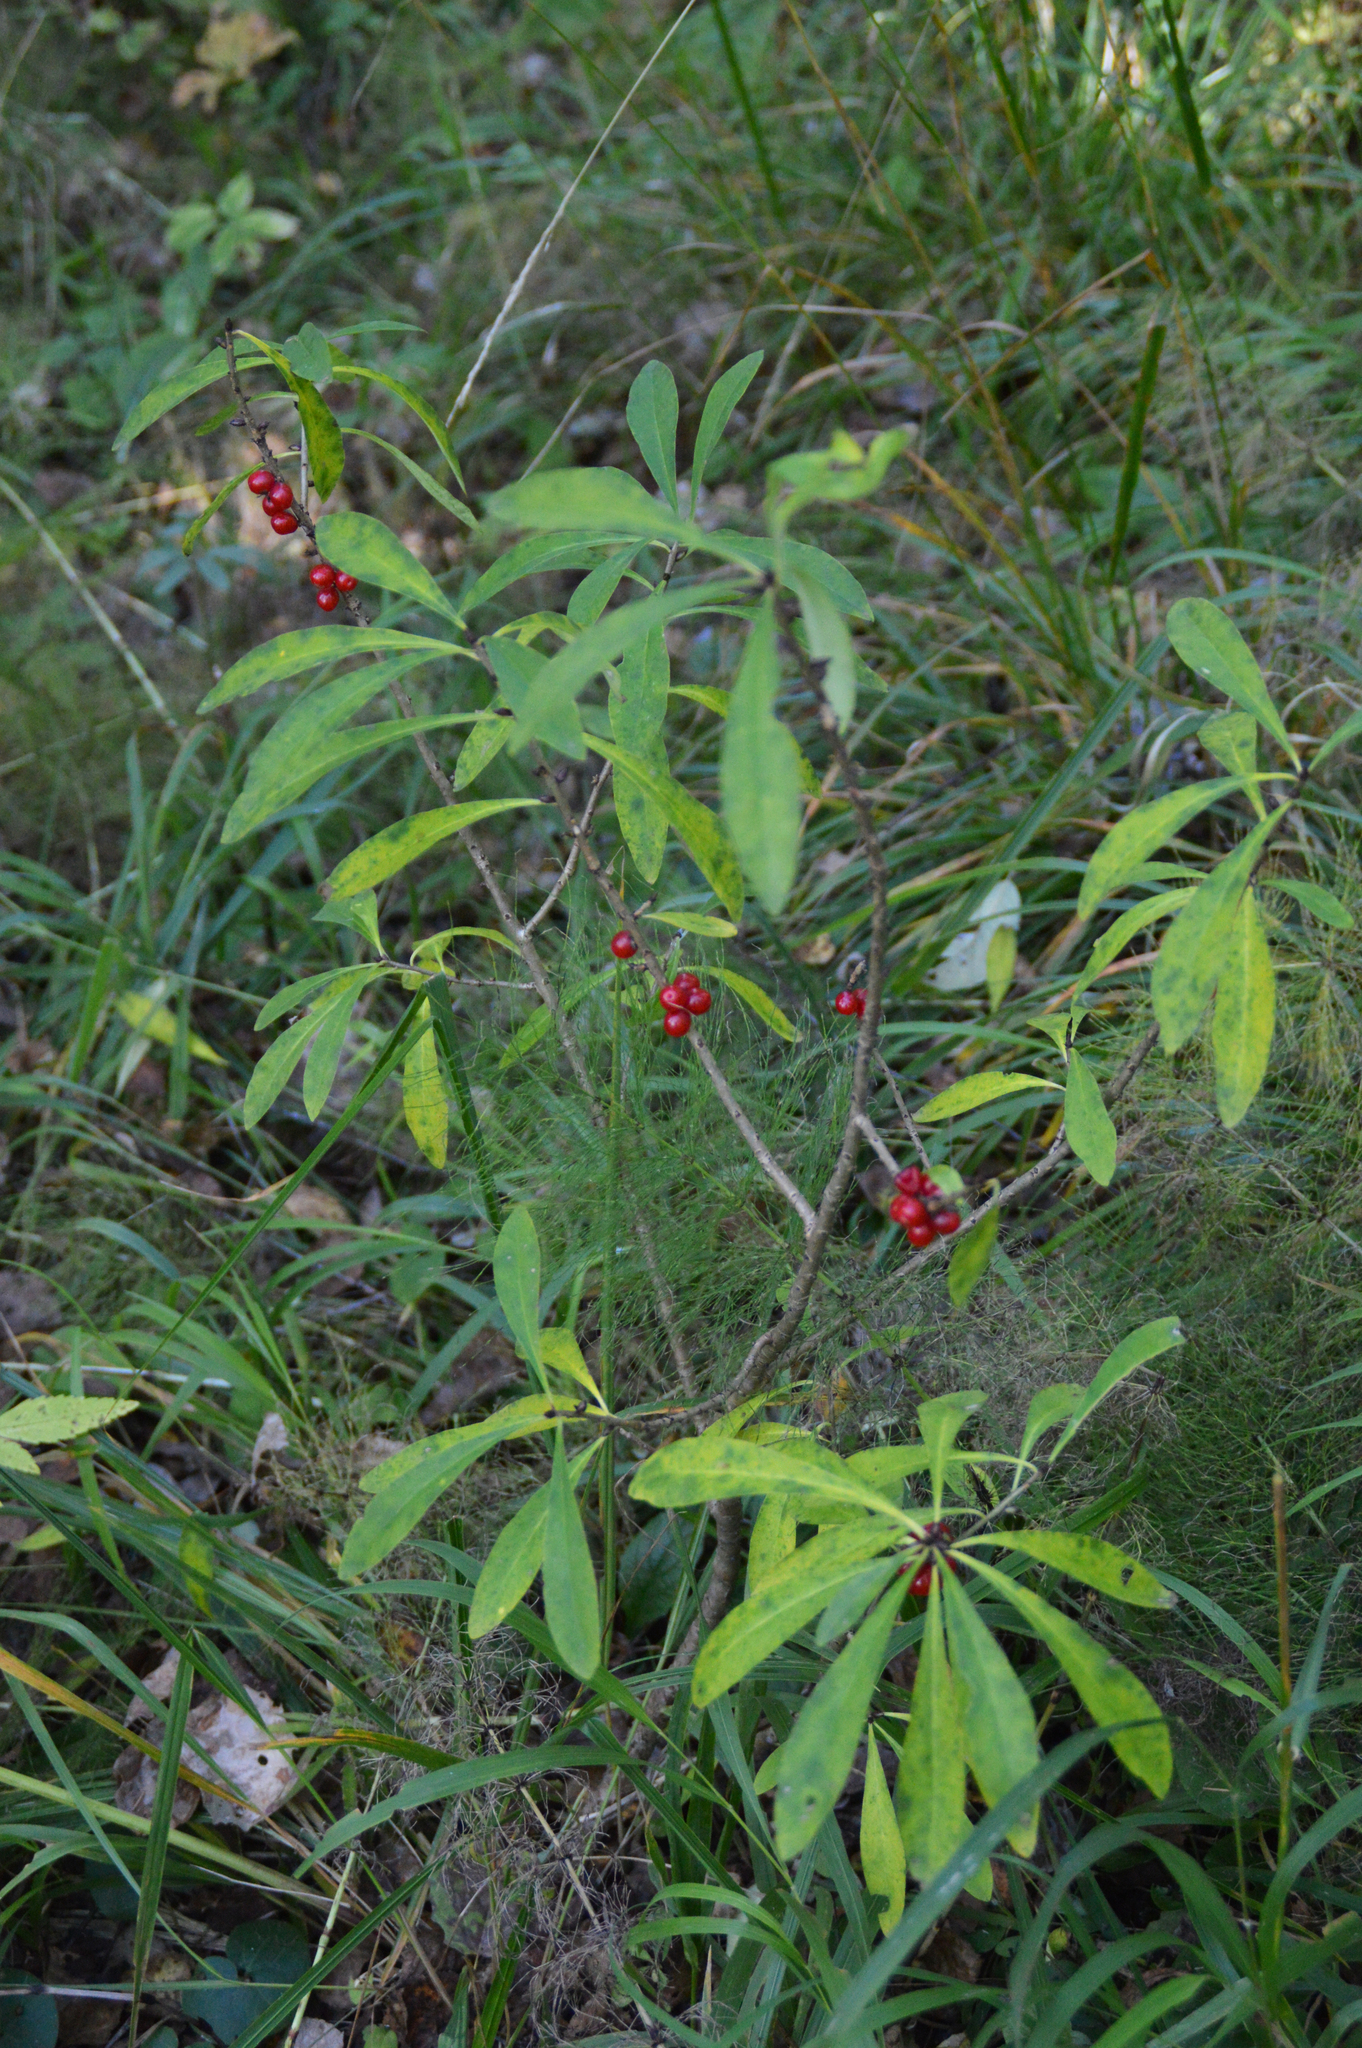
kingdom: Plantae
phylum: Tracheophyta
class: Magnoliopsida
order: Malvales
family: Thymelaeaceae
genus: Daphne
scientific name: Daphne mezereum
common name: Mezereon
